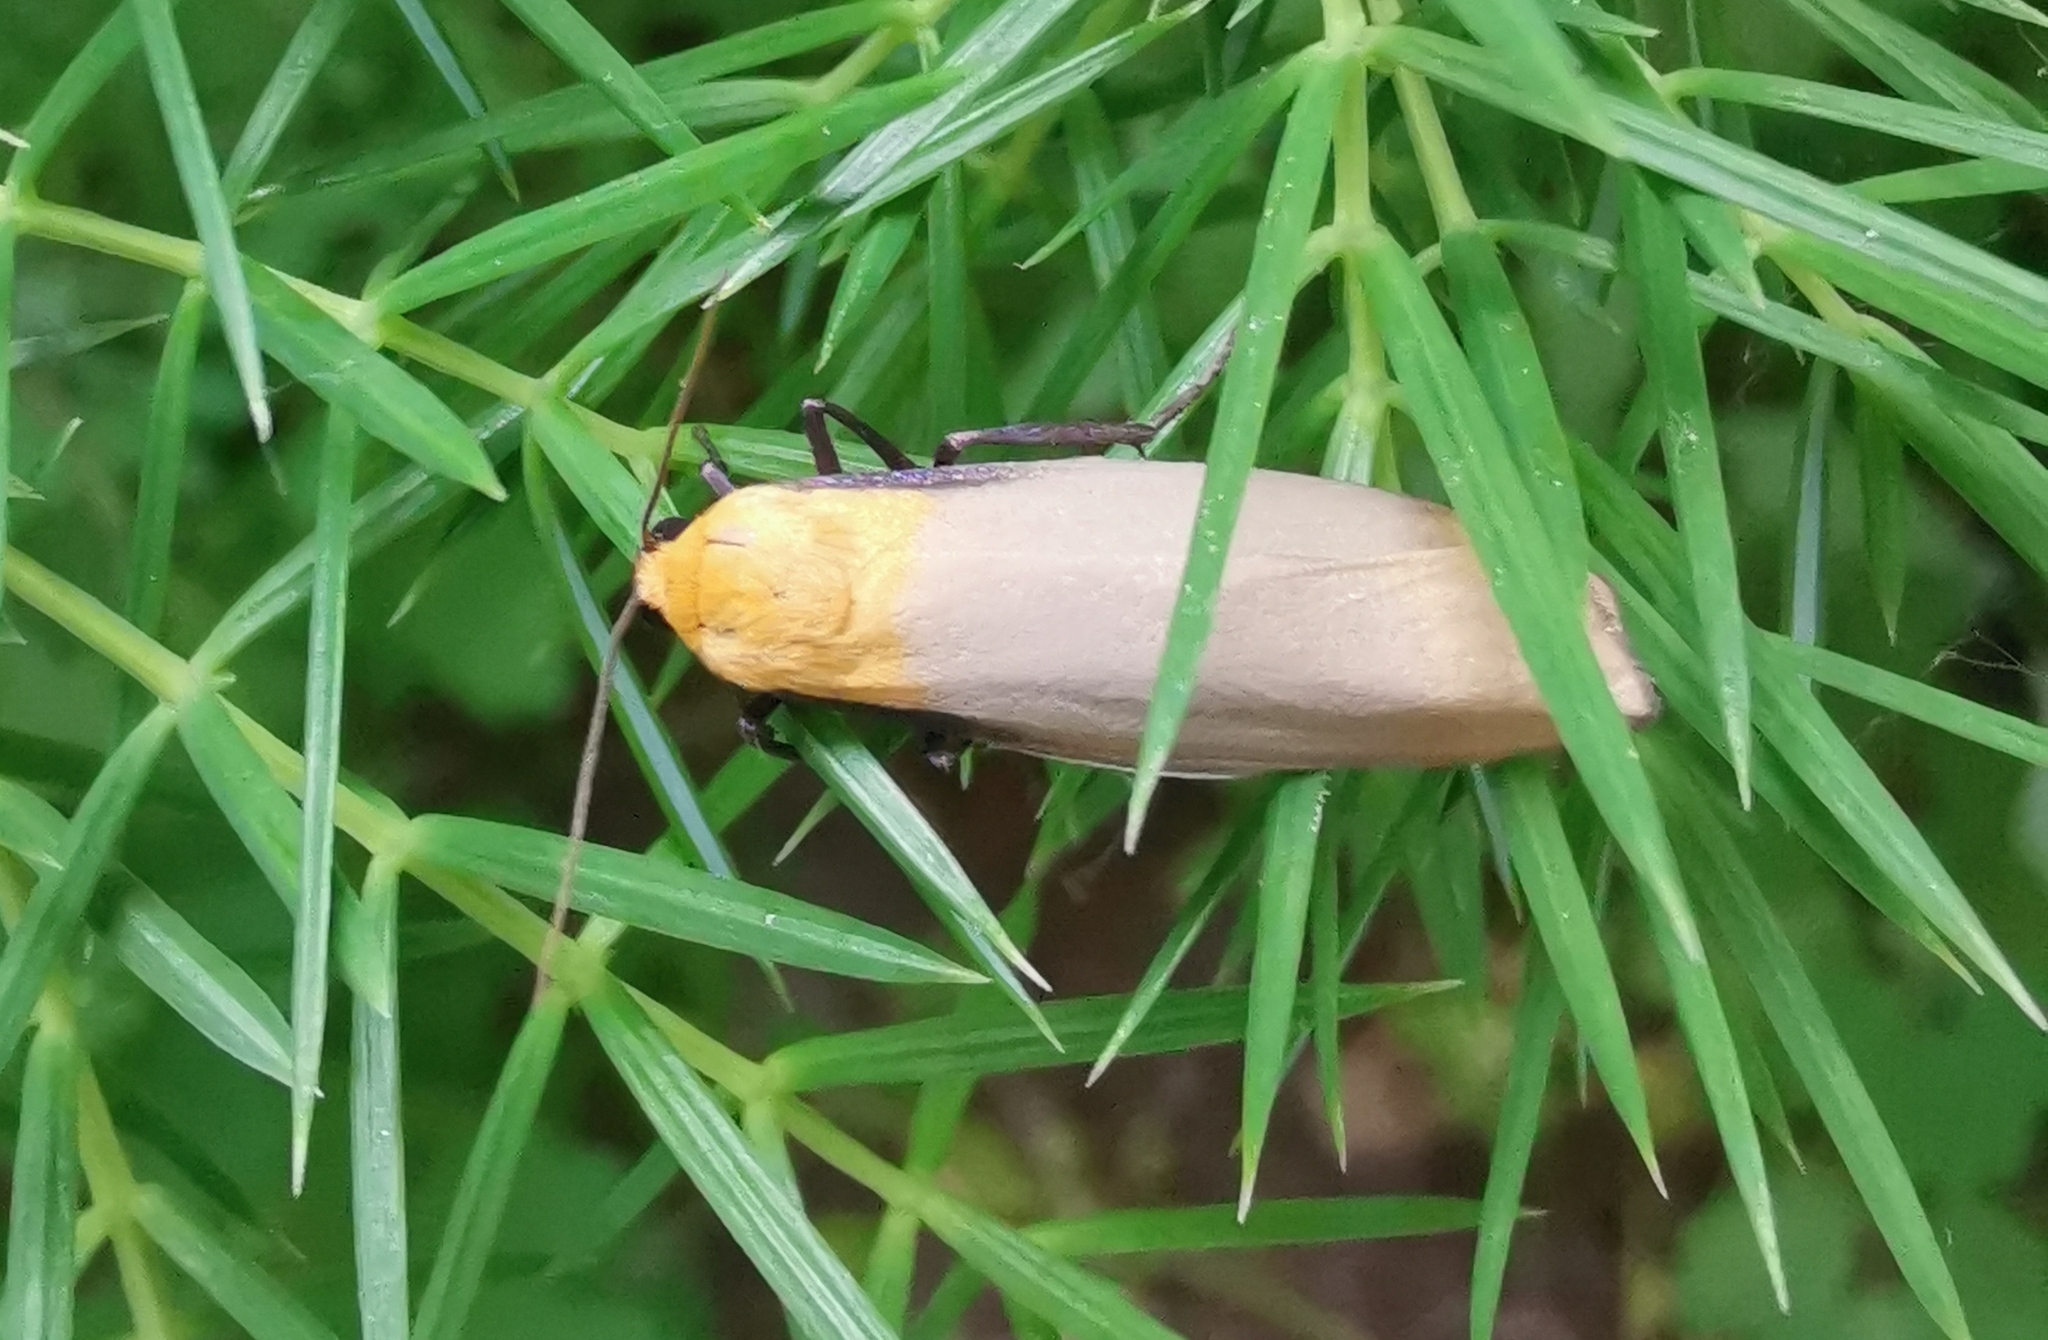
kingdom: Animalia
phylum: Arthropoda
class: Insecta
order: Lepidoptera
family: Erebidae
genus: Lithosia
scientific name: Lithosia quadra
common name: Four-spotted footman
